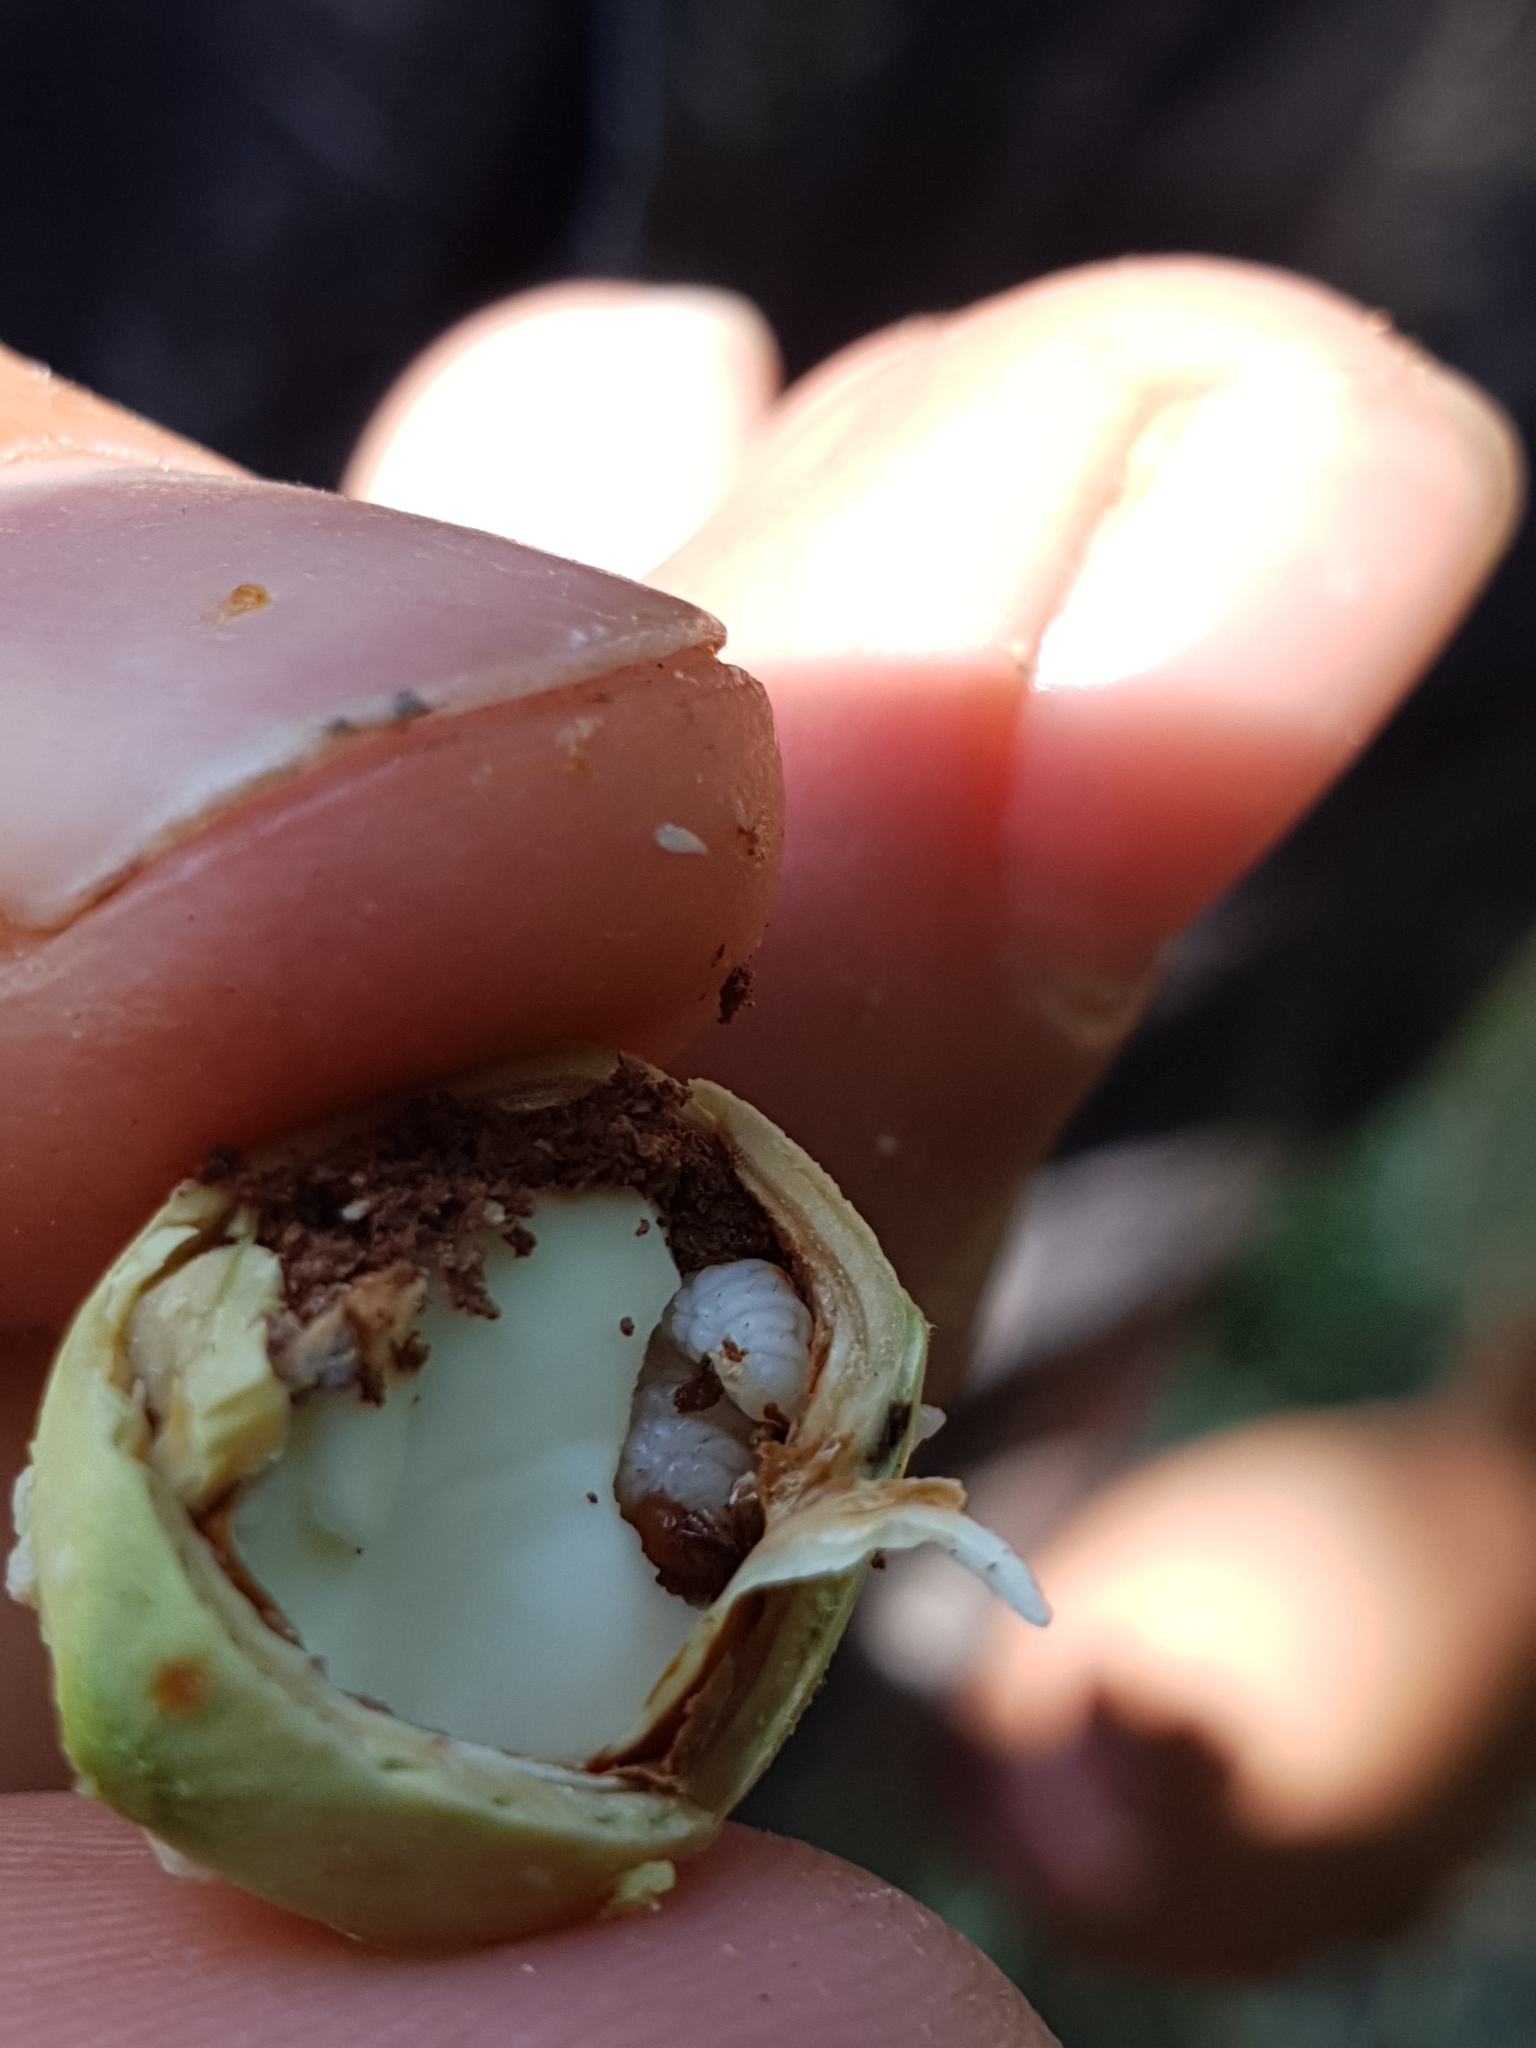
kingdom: Animalia
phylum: Arthropoda
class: Insecta
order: Coleoptera
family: Curculionidae
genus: Curculio
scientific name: Curculio nucum
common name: Nut weevil
